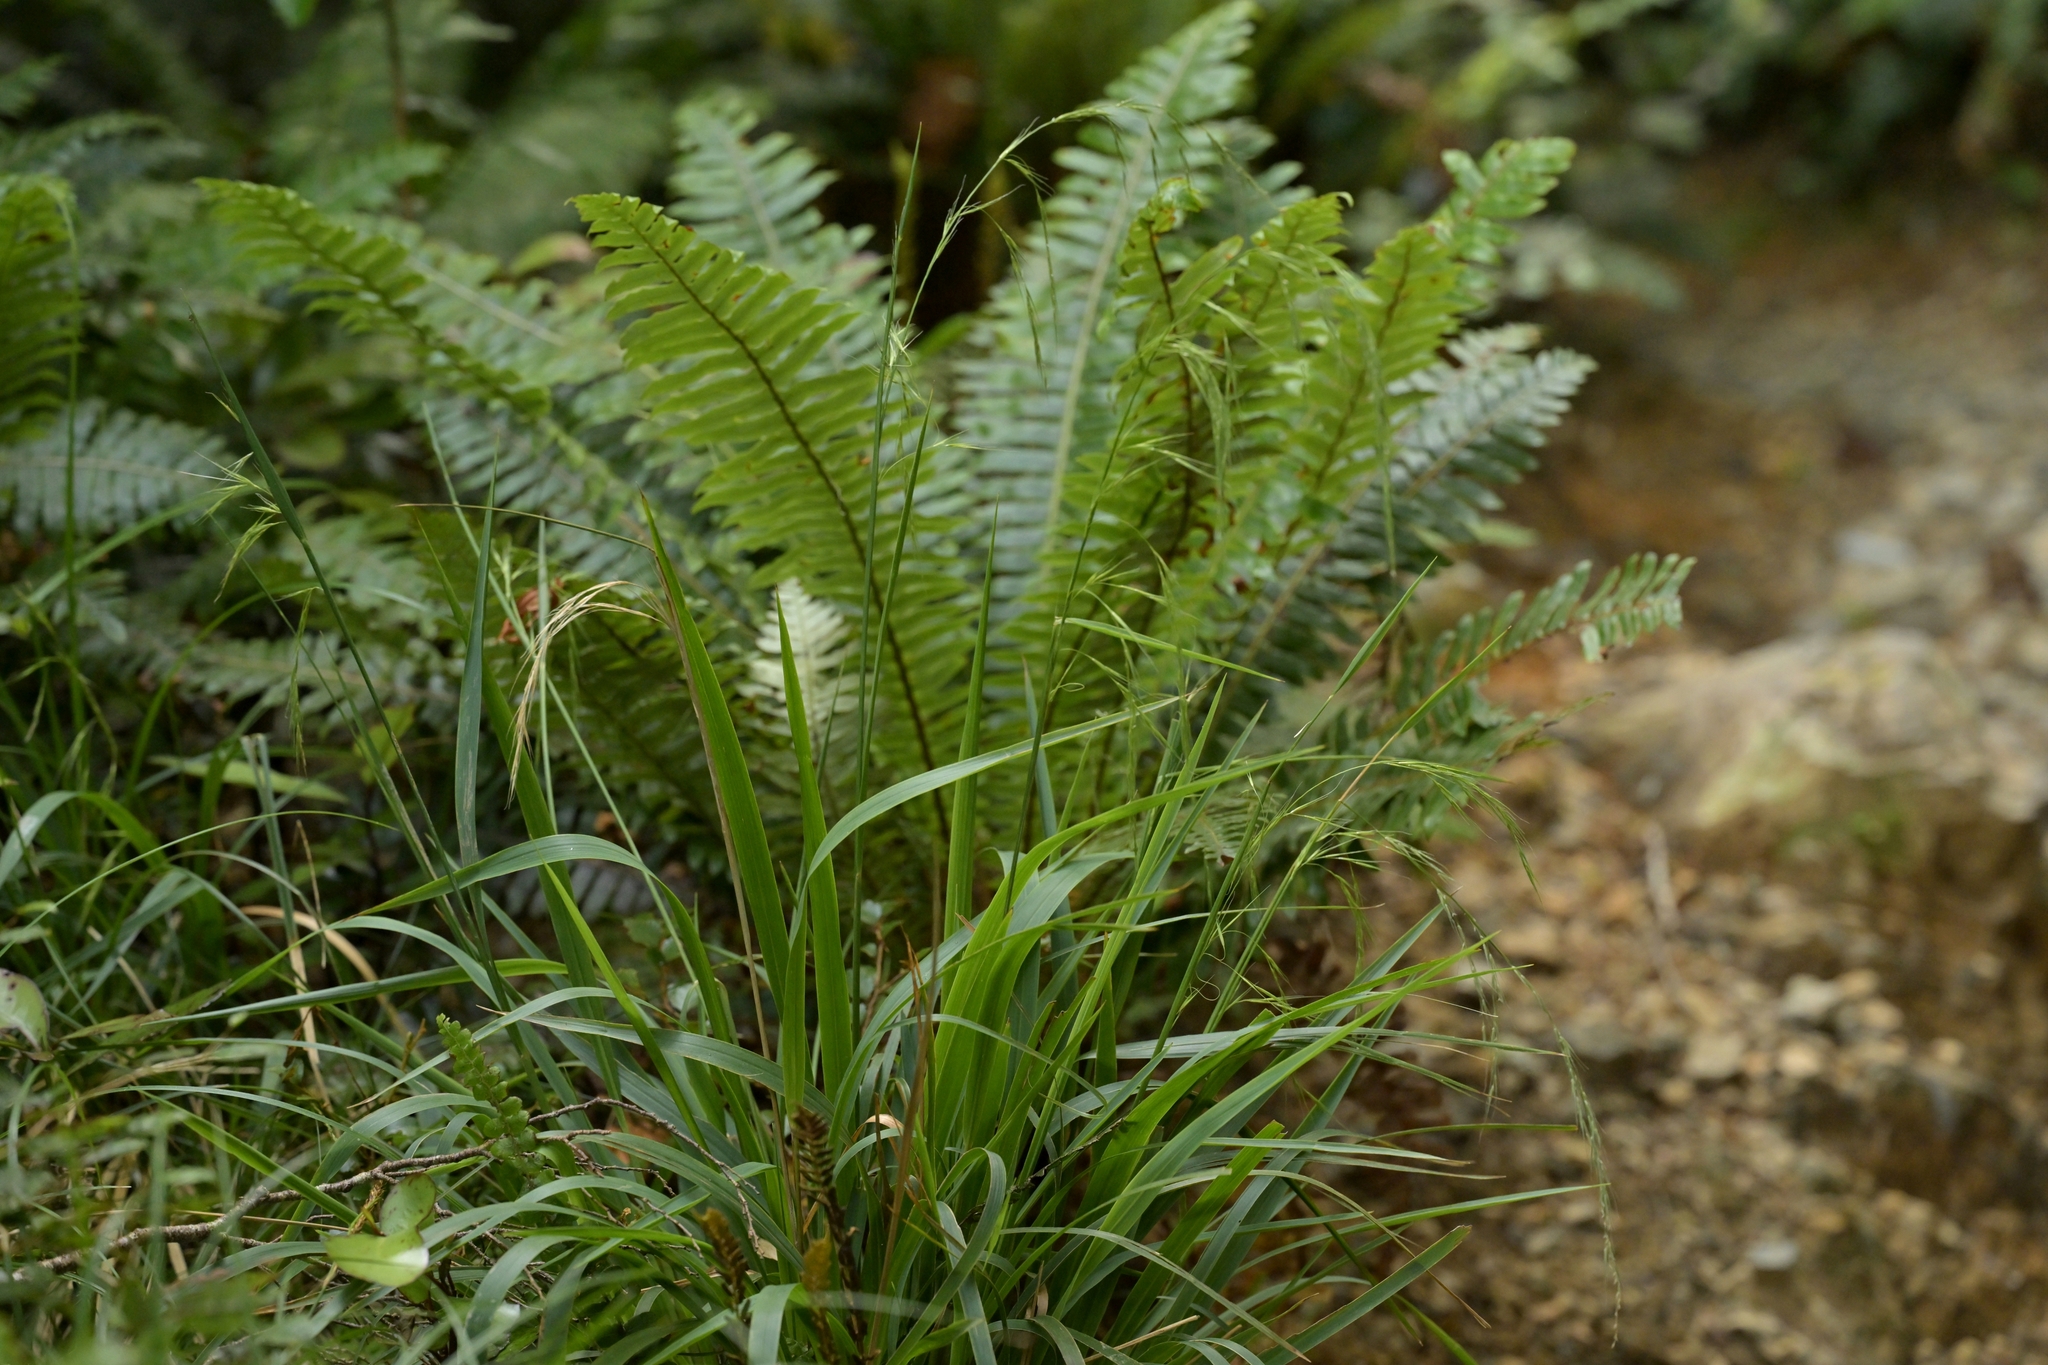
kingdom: Plantae
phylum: Tracheophyta
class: Liliopsida
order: Poales
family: Poaceae
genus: Ehrharta
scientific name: Ehrharta diplax
